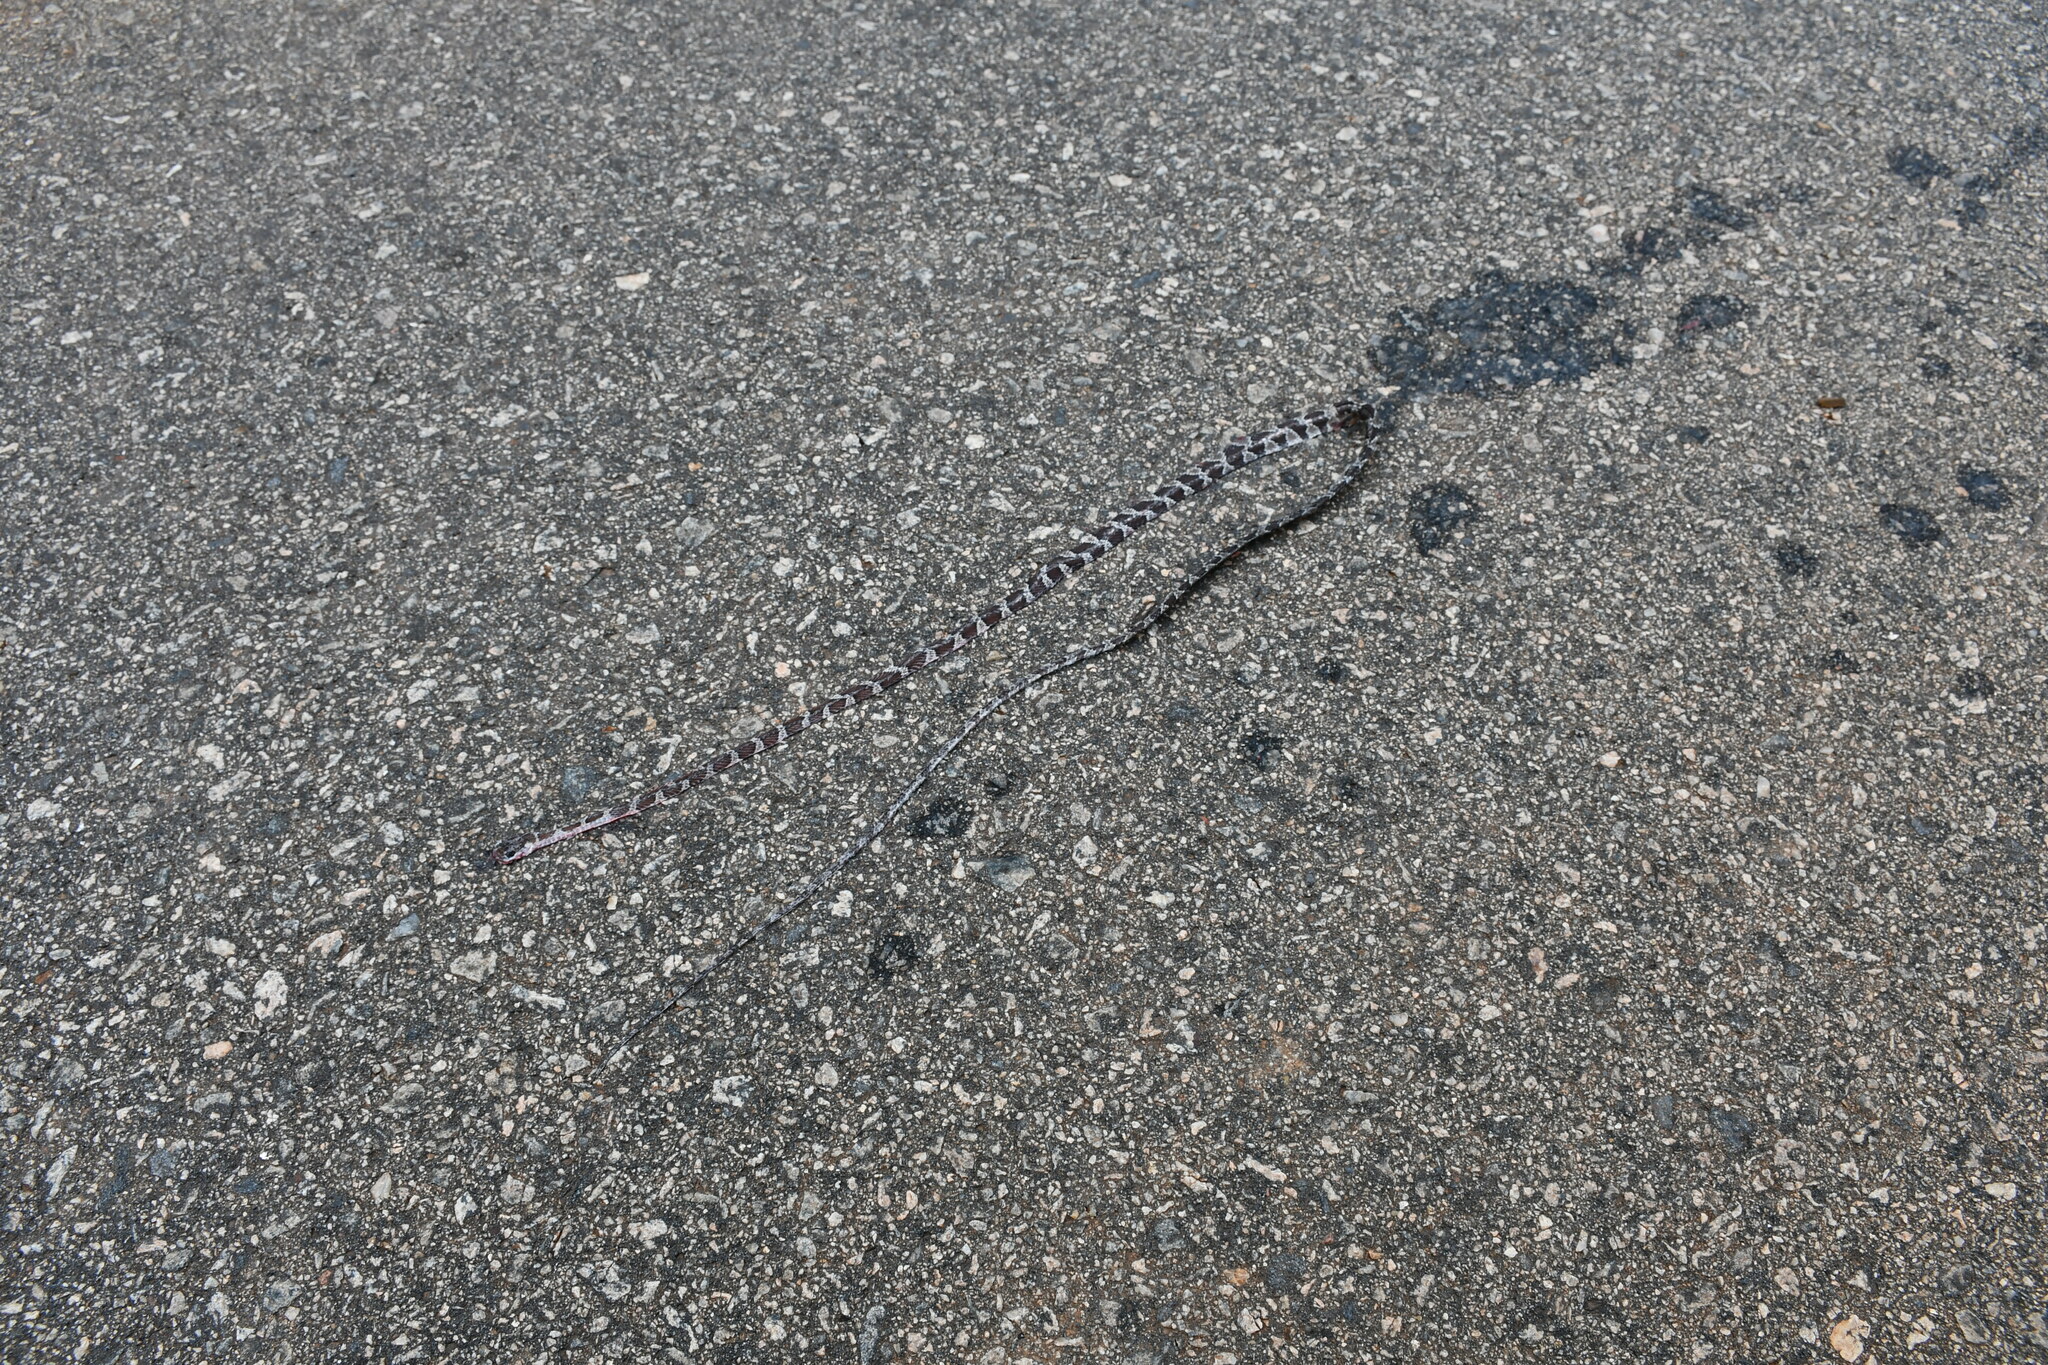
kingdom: Animalia
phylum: Chordata
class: Squamata
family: Colubridae
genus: Imantodes
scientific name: Imantodes cenchoa
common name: Blunthead tree snake
